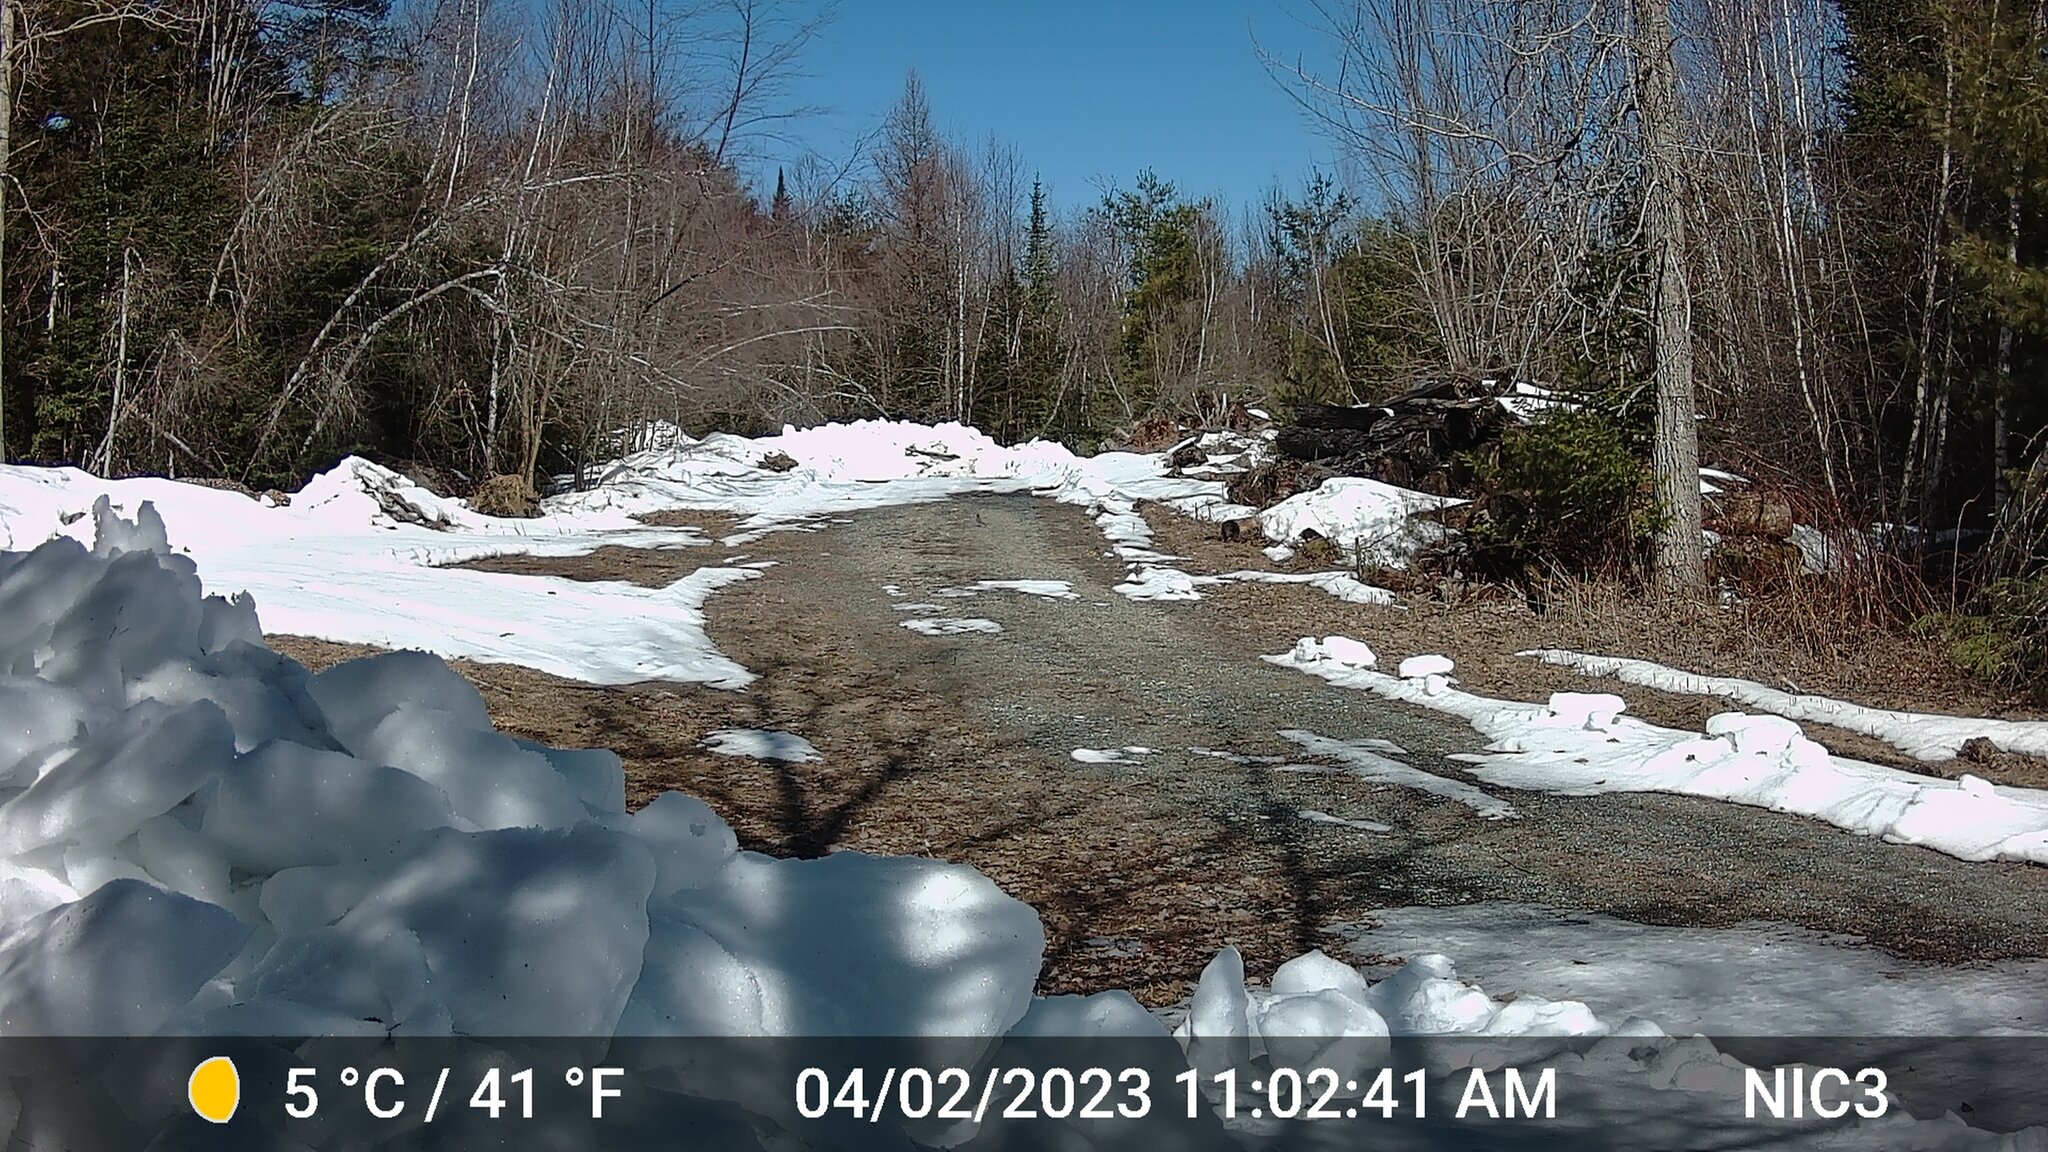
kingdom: Animalia
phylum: Chordata
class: Aves
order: Passeriformes
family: Turdidae
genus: Turdus
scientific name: Turdus migratorius
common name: American robin
